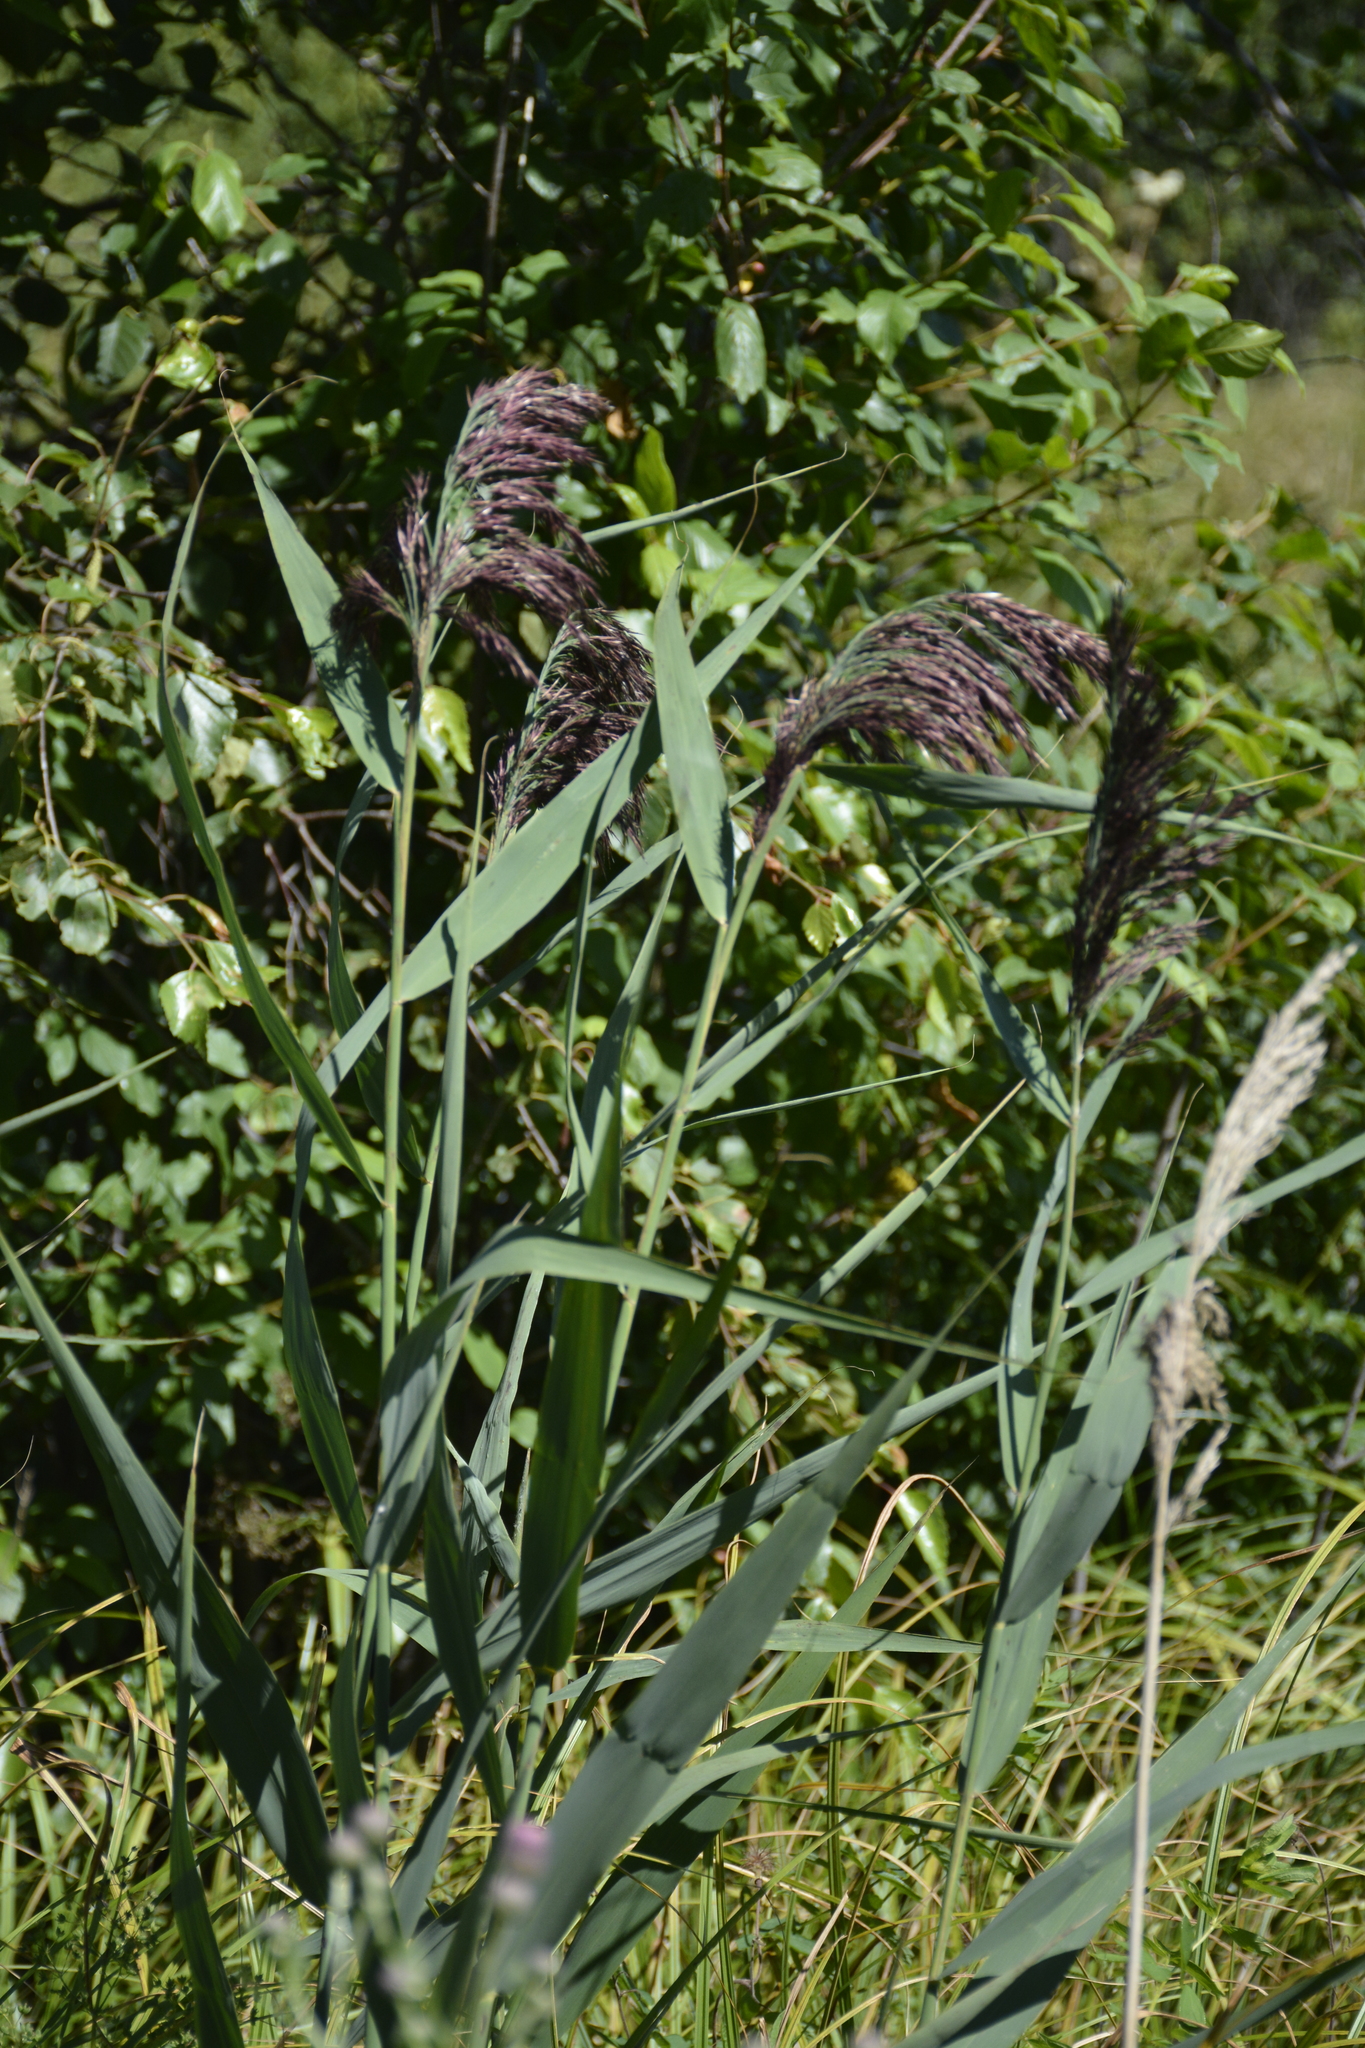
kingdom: Plantae
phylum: Tracheophyta
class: Liliopsida
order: Poales
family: Poaceae
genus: Phragmites
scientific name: Phragmites australis
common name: Common reed
